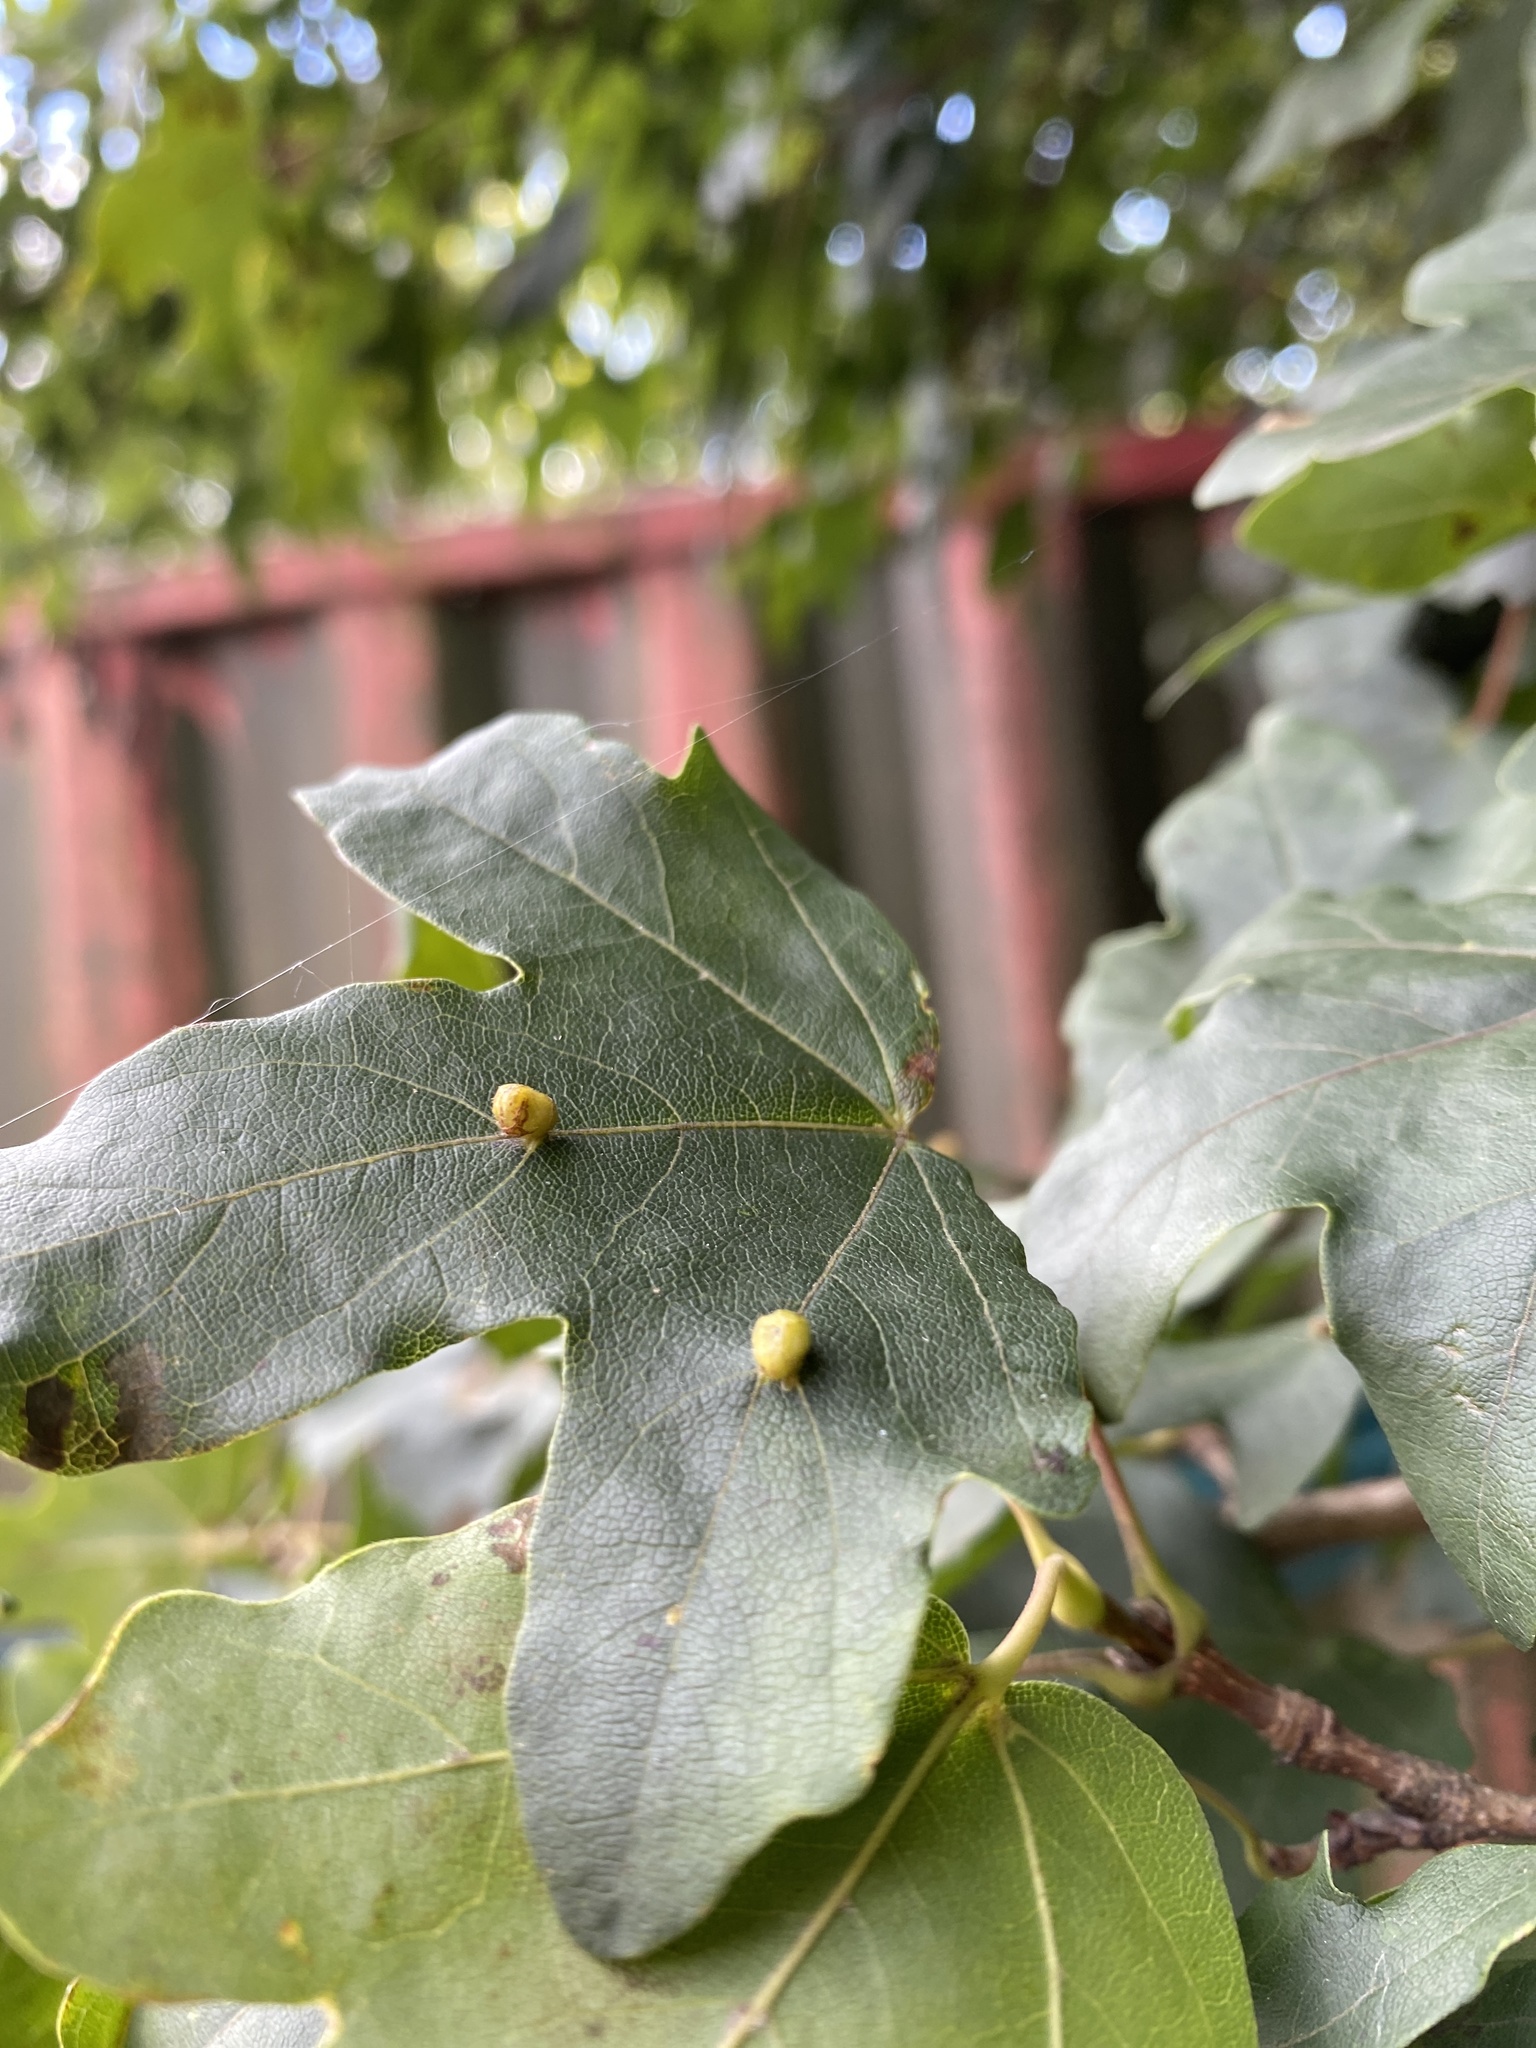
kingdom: Animalia
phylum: Arthropoda
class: Arachnida
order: Trombidiformes
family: Eriophyidae
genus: Aceria
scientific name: Aceria macrochelus
